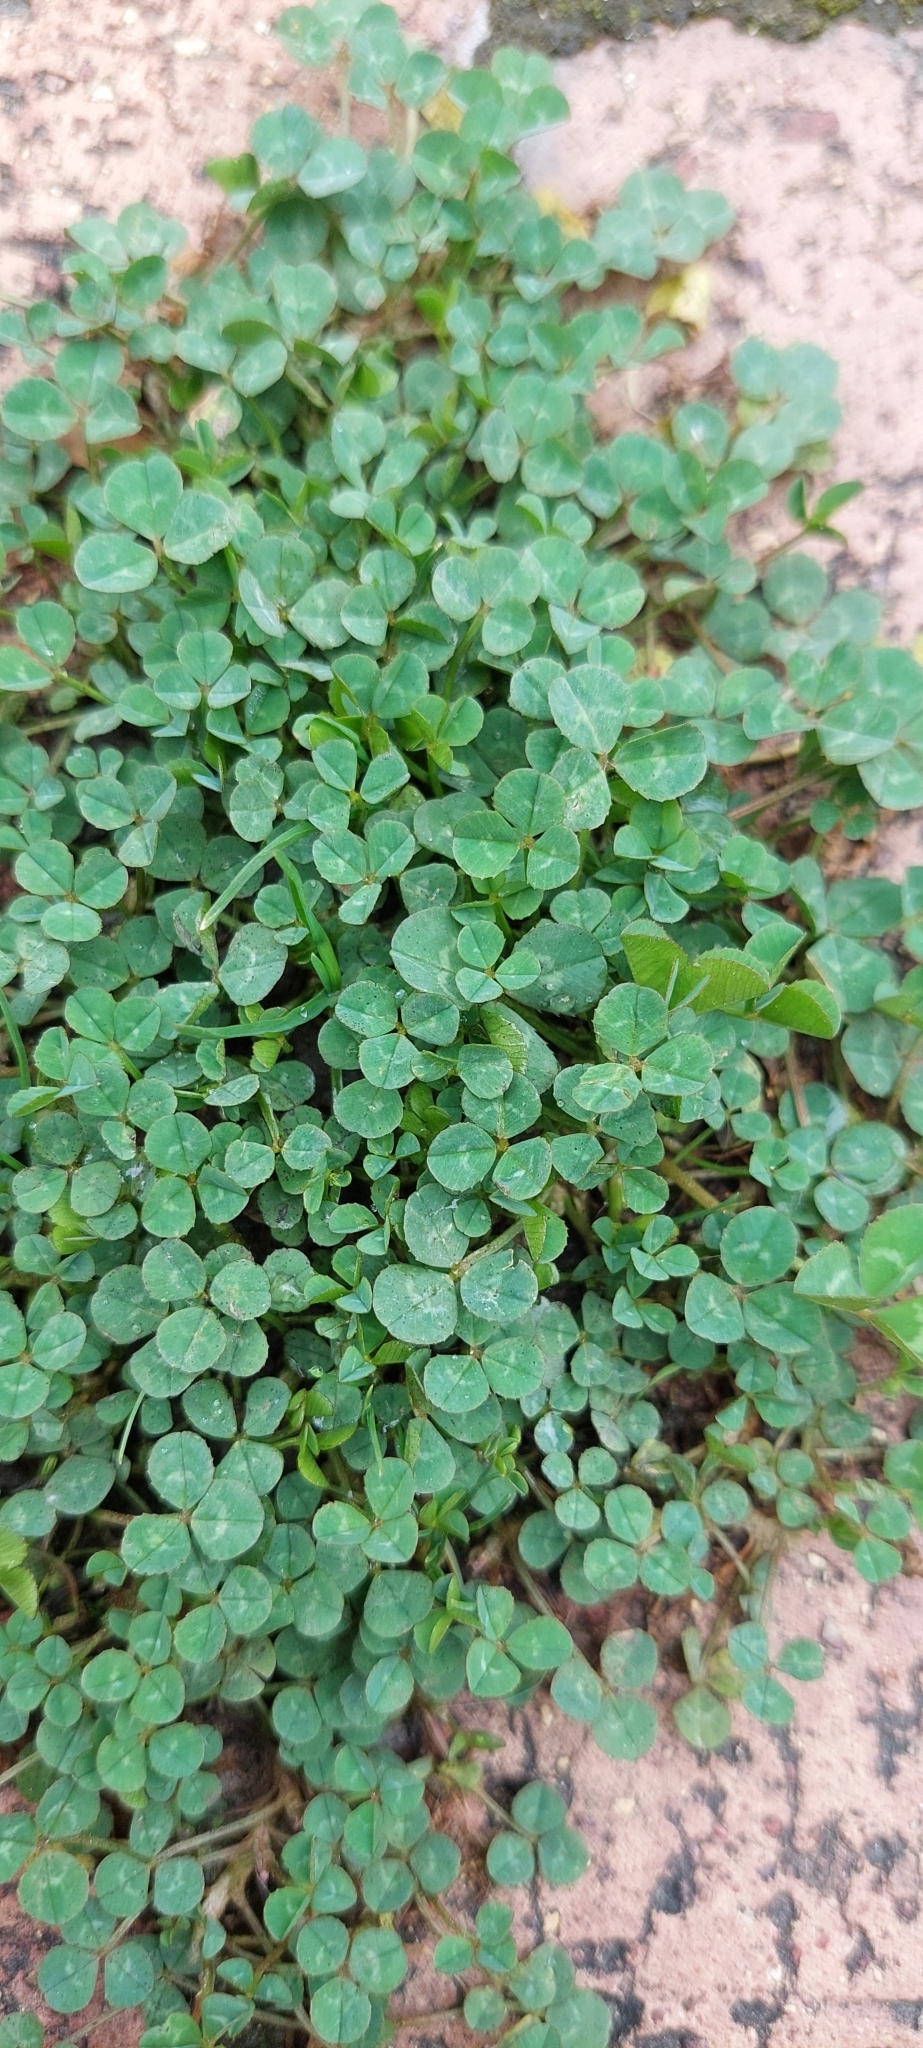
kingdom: Plantae
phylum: Tracheophyta
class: Magnoliopsida
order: Fabales
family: Fabaceae
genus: Trifolium
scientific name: Trifolium repens
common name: White clover
